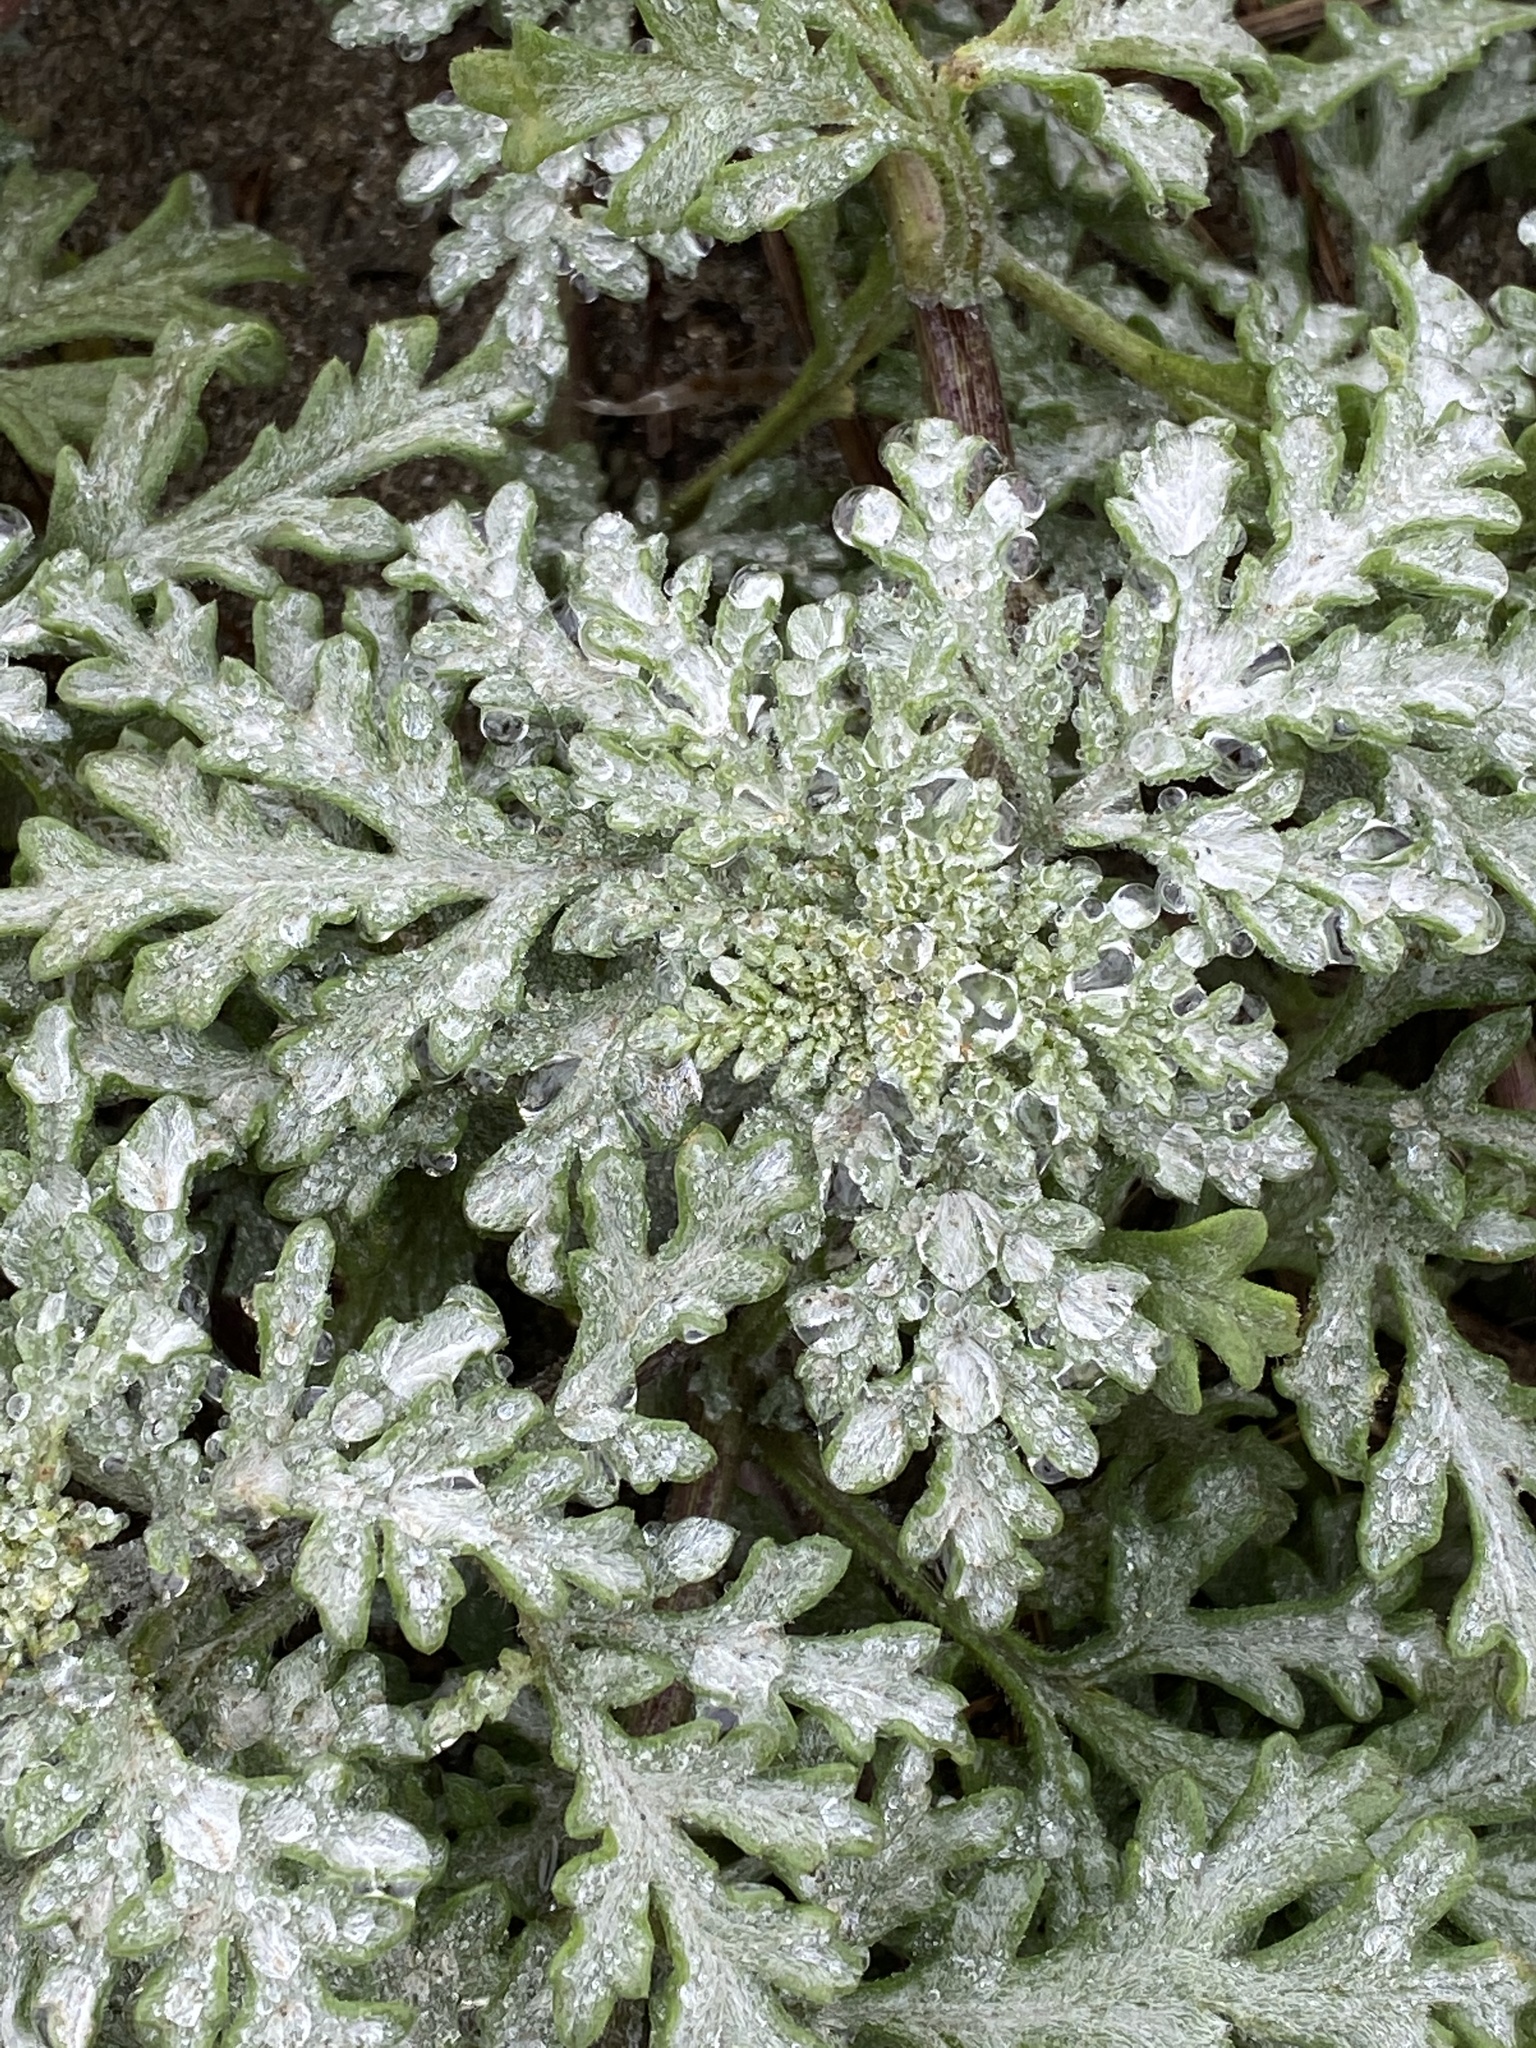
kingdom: Plantae
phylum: Tracheophyta
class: Magnoliopsida
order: Asterales
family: Asteraceae
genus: Eriophyllum
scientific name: Eriophyllum staechadifolium
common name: Lizardtail
